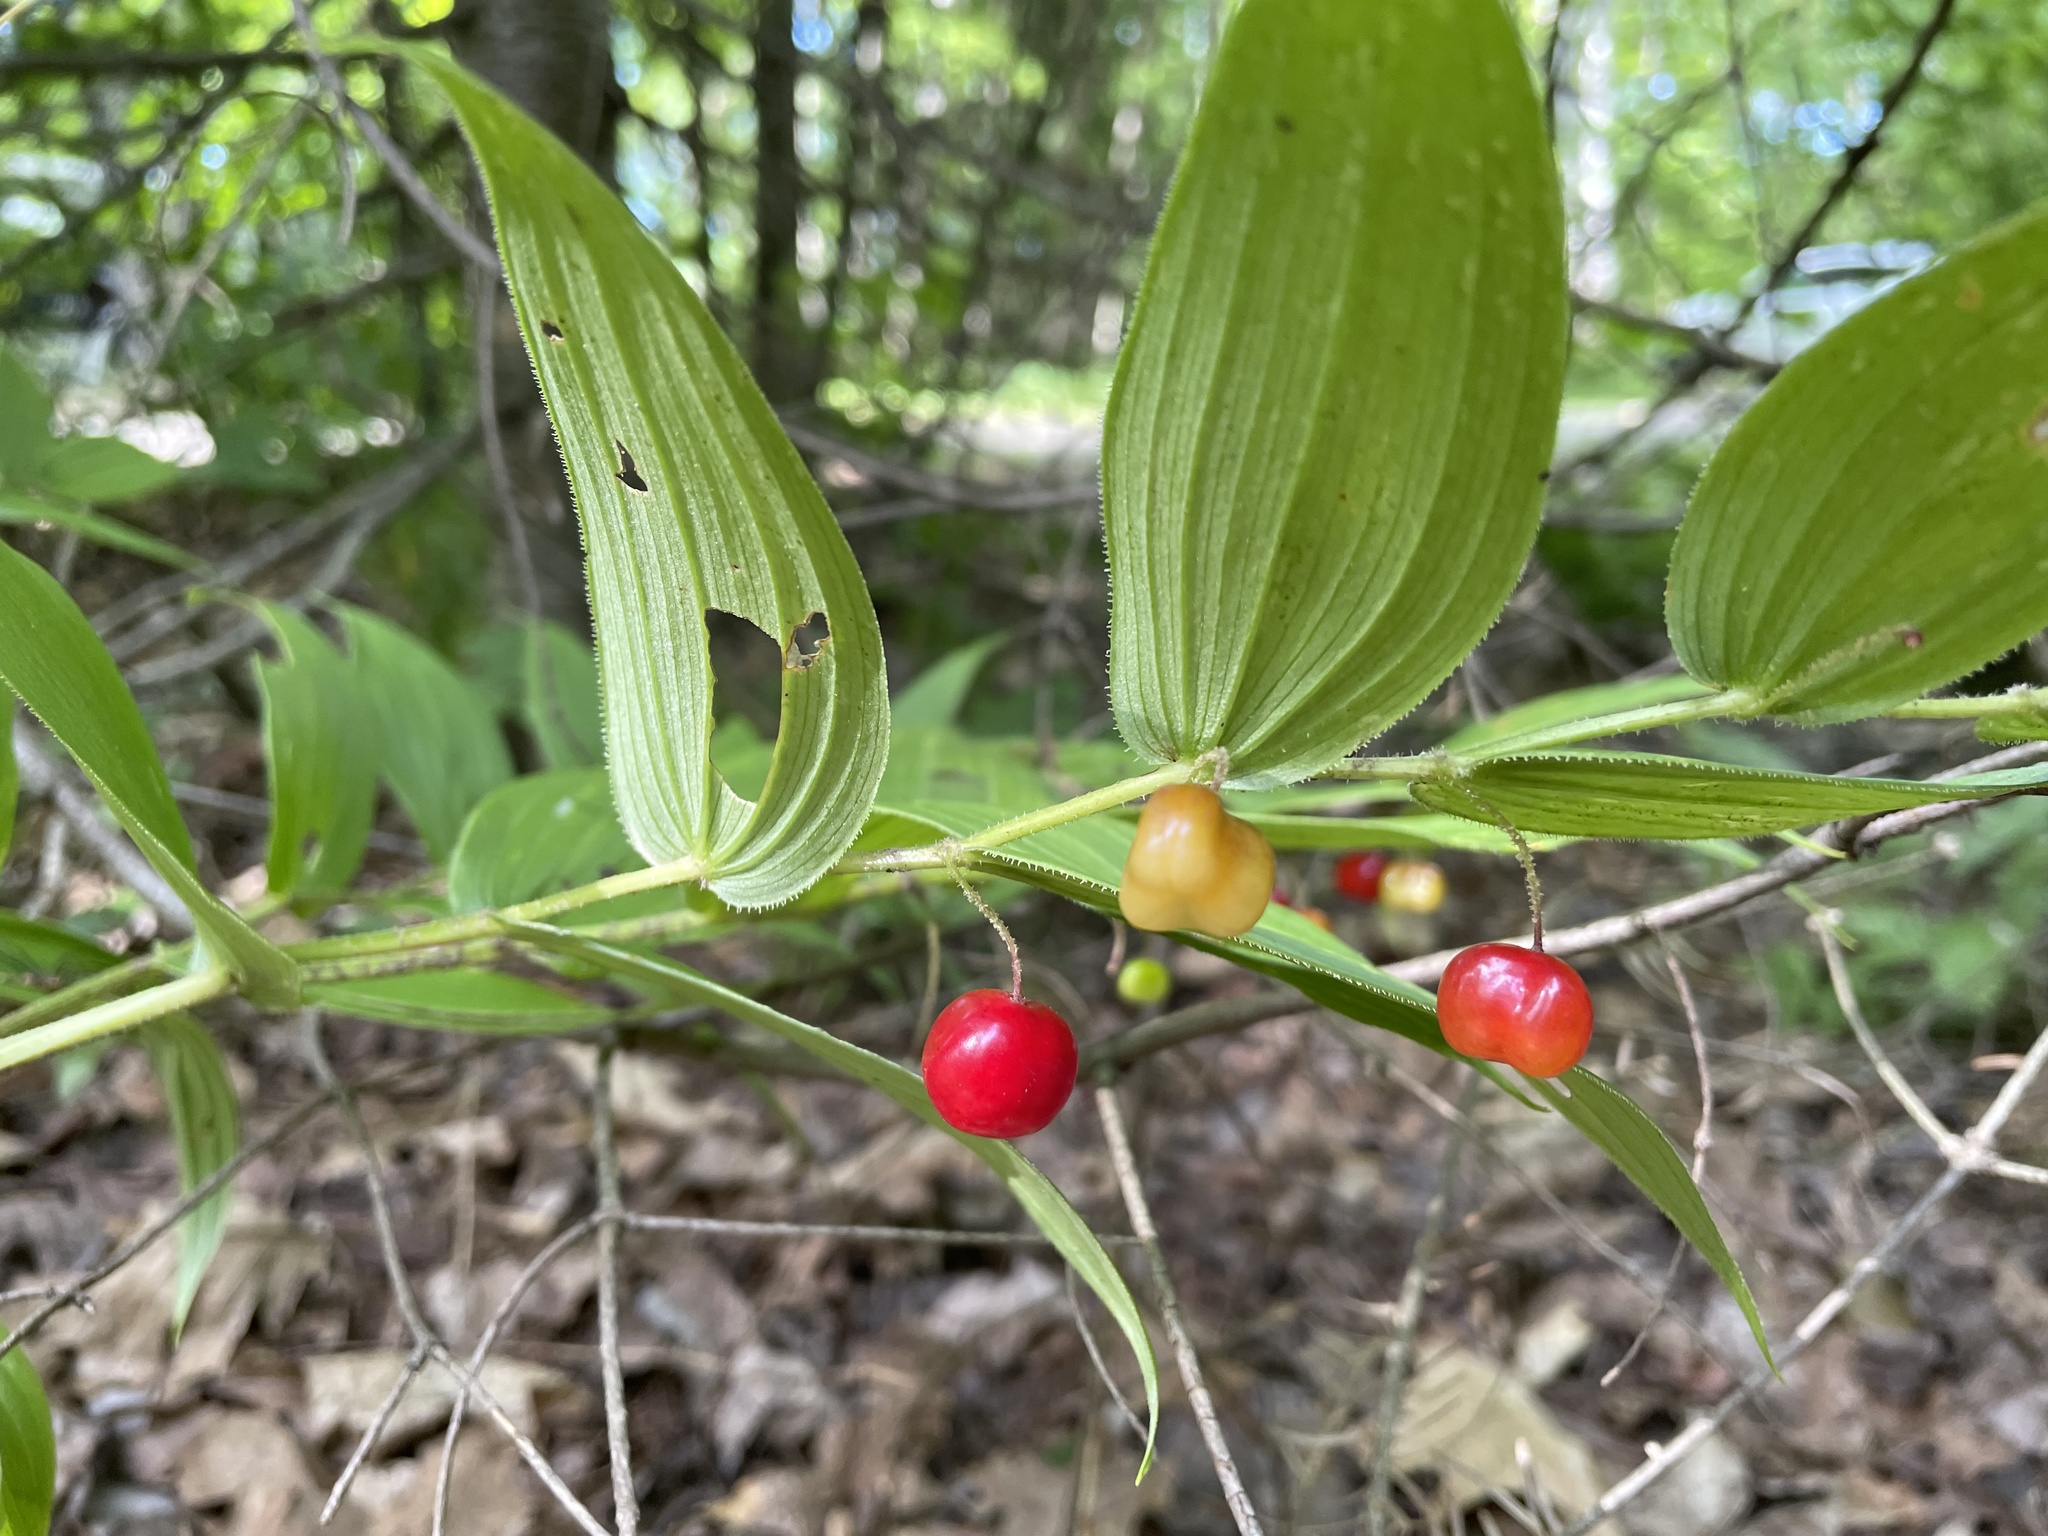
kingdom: Plantae
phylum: Tracheophyta
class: Liliopsida
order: Liliales
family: Liliaceae
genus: Streptopus
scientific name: Streptopus lanceolatus
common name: Rose mandarin
